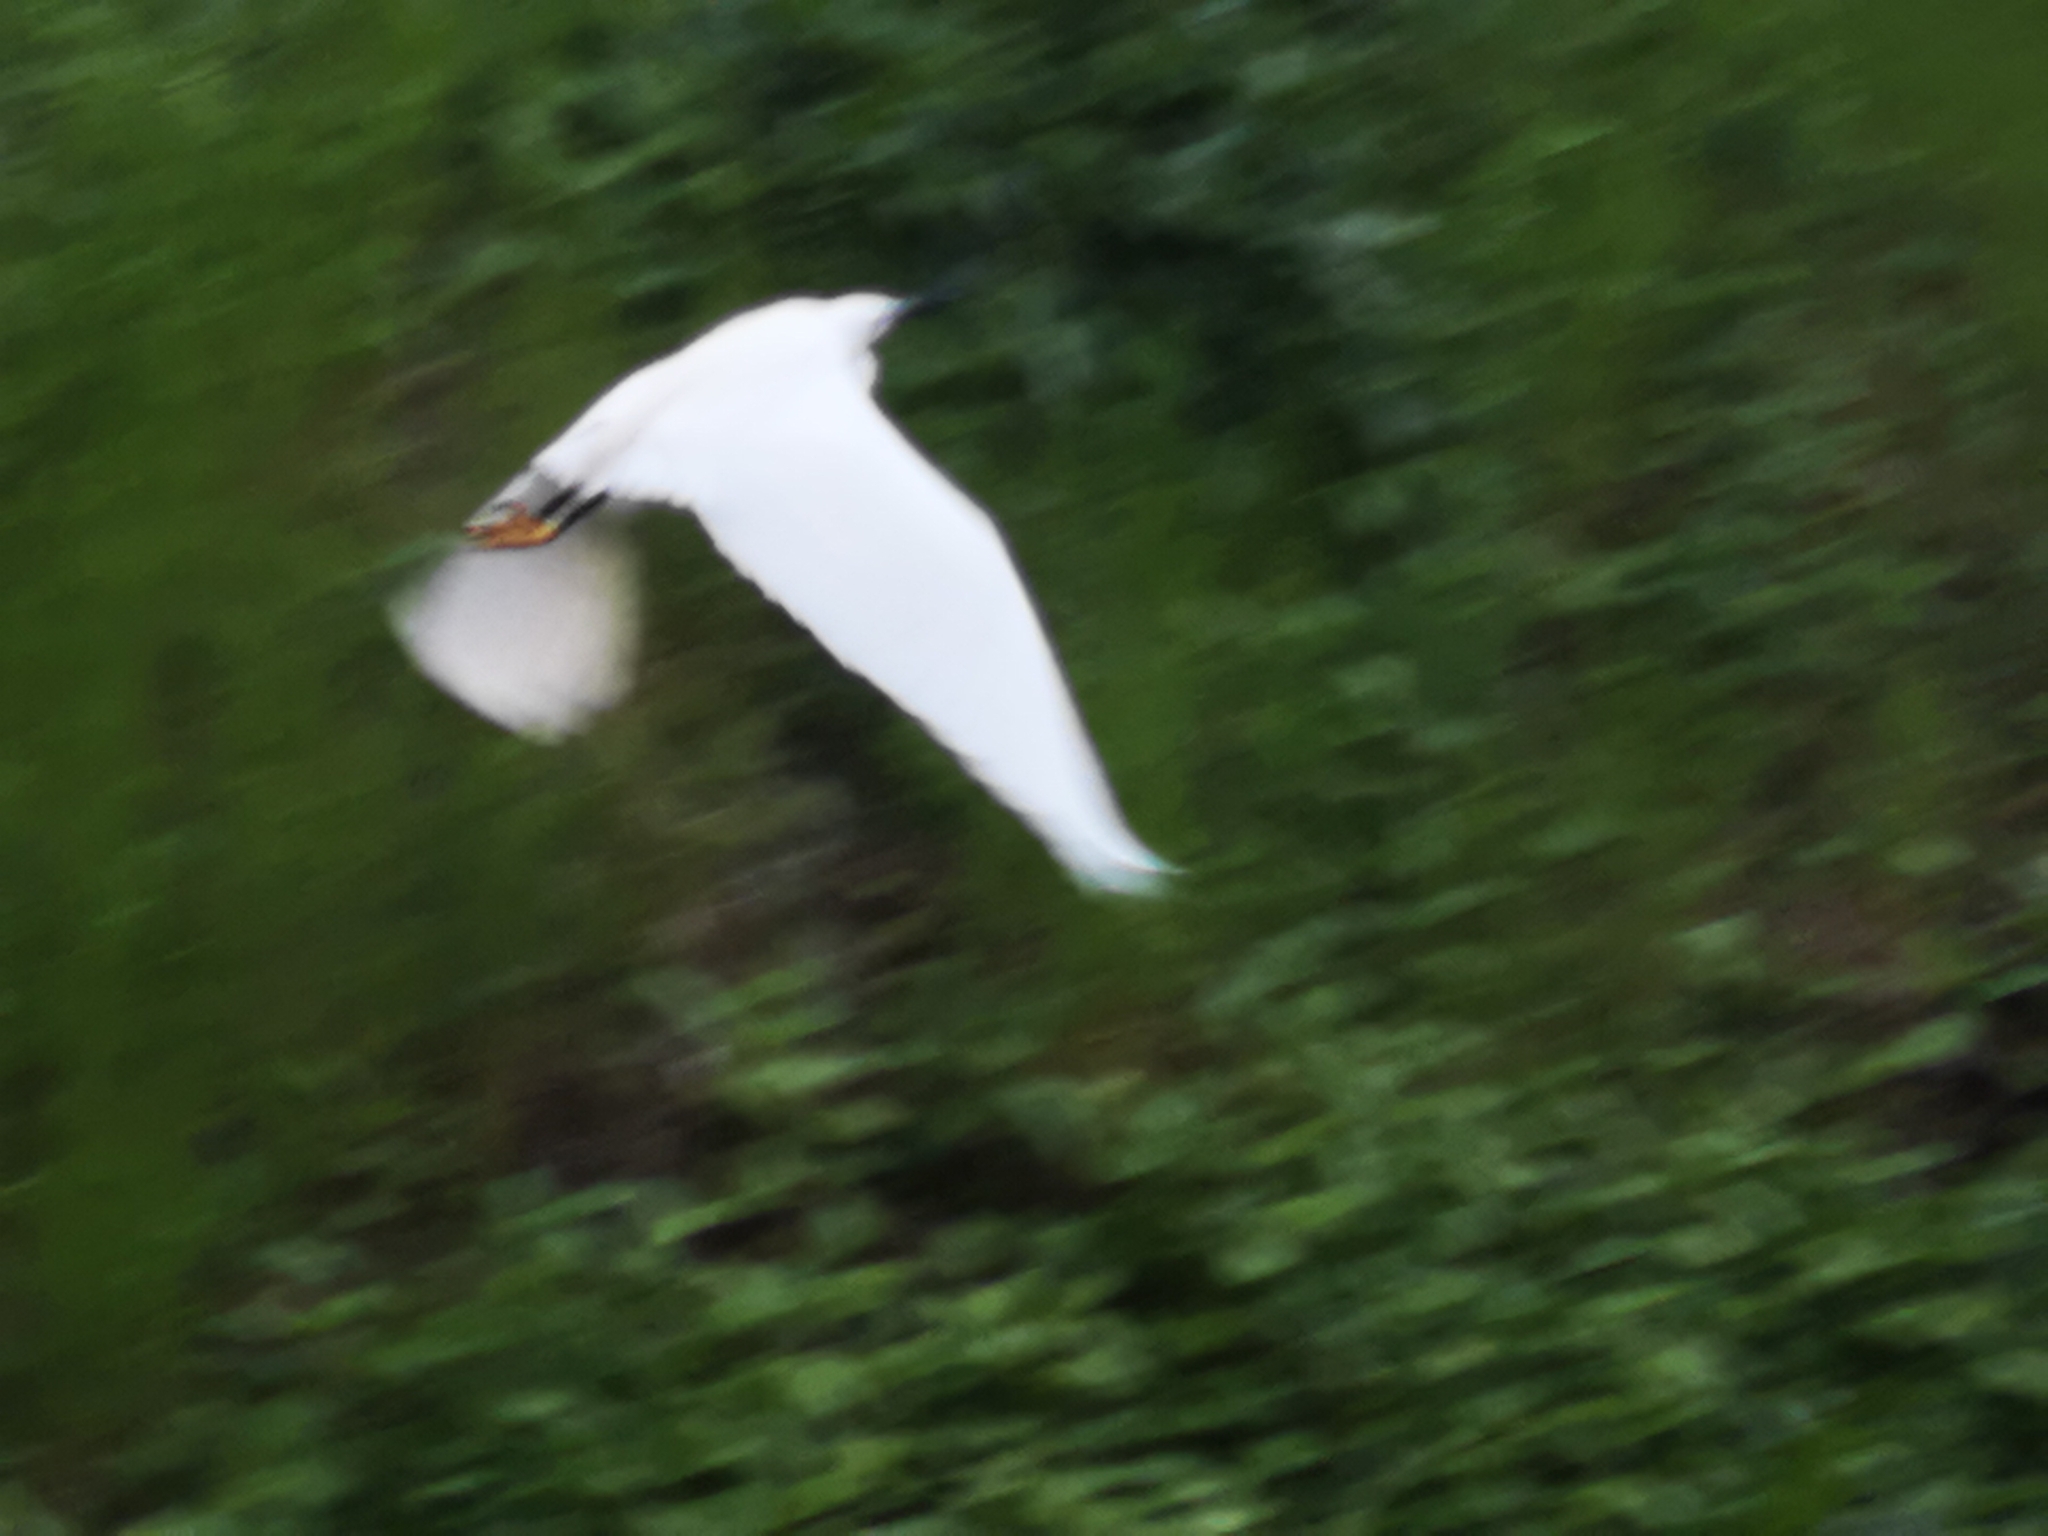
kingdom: Animalia
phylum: Chordata
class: Aves
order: Pelecaniformes
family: Ardeidae
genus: Egretta
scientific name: Egretta garzetta
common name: Little egret
